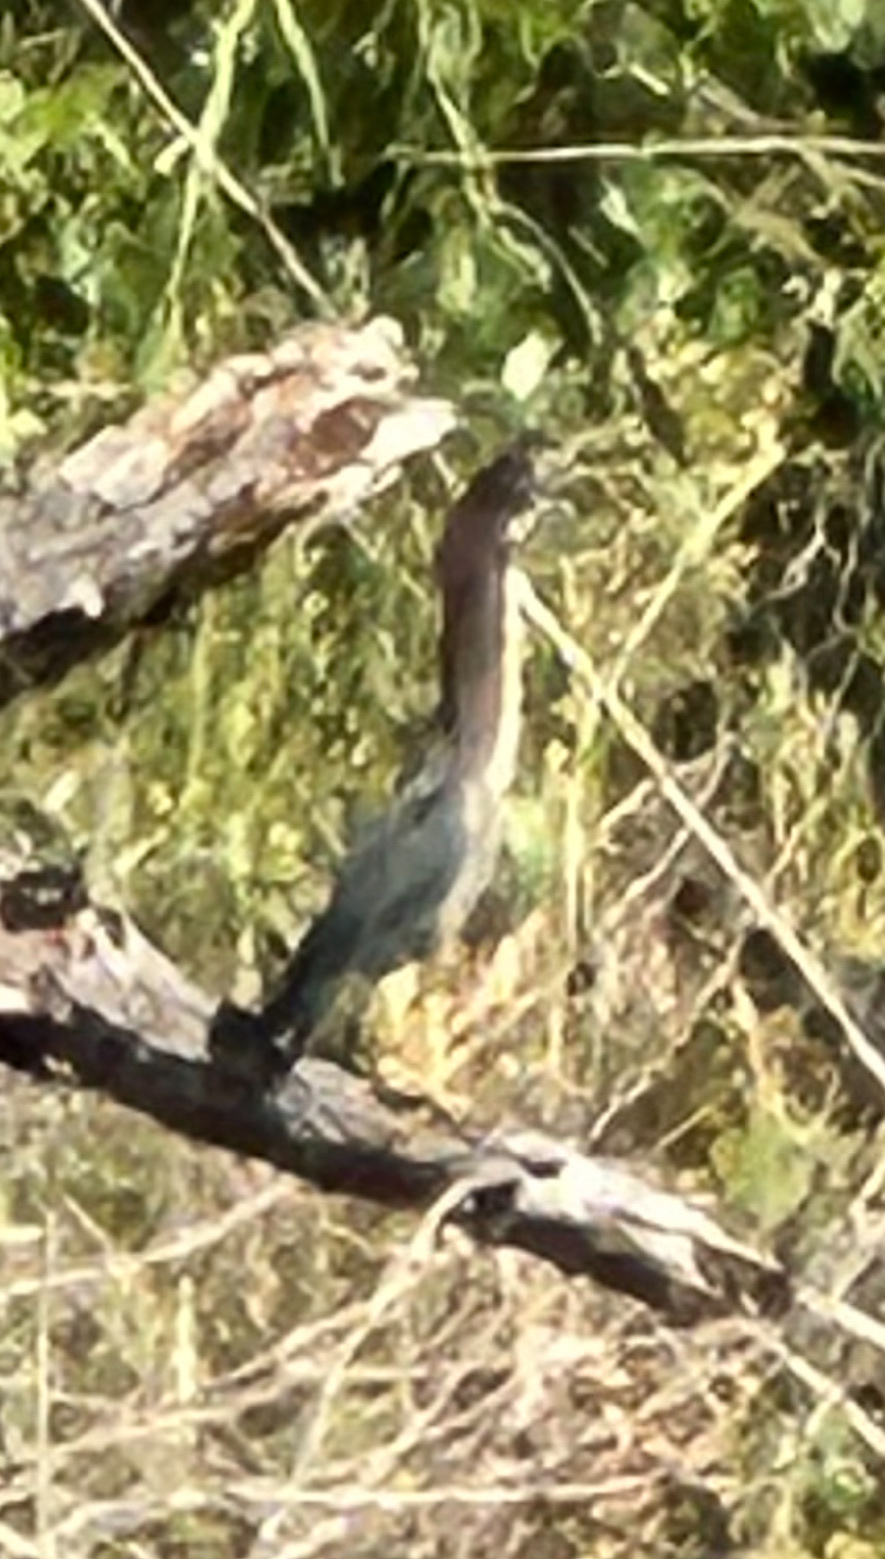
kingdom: Animalia
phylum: Chordata
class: Aves
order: Pelecaniformes
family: Ardeidae
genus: Butorides
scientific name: Butorides virescens
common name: Green heron
